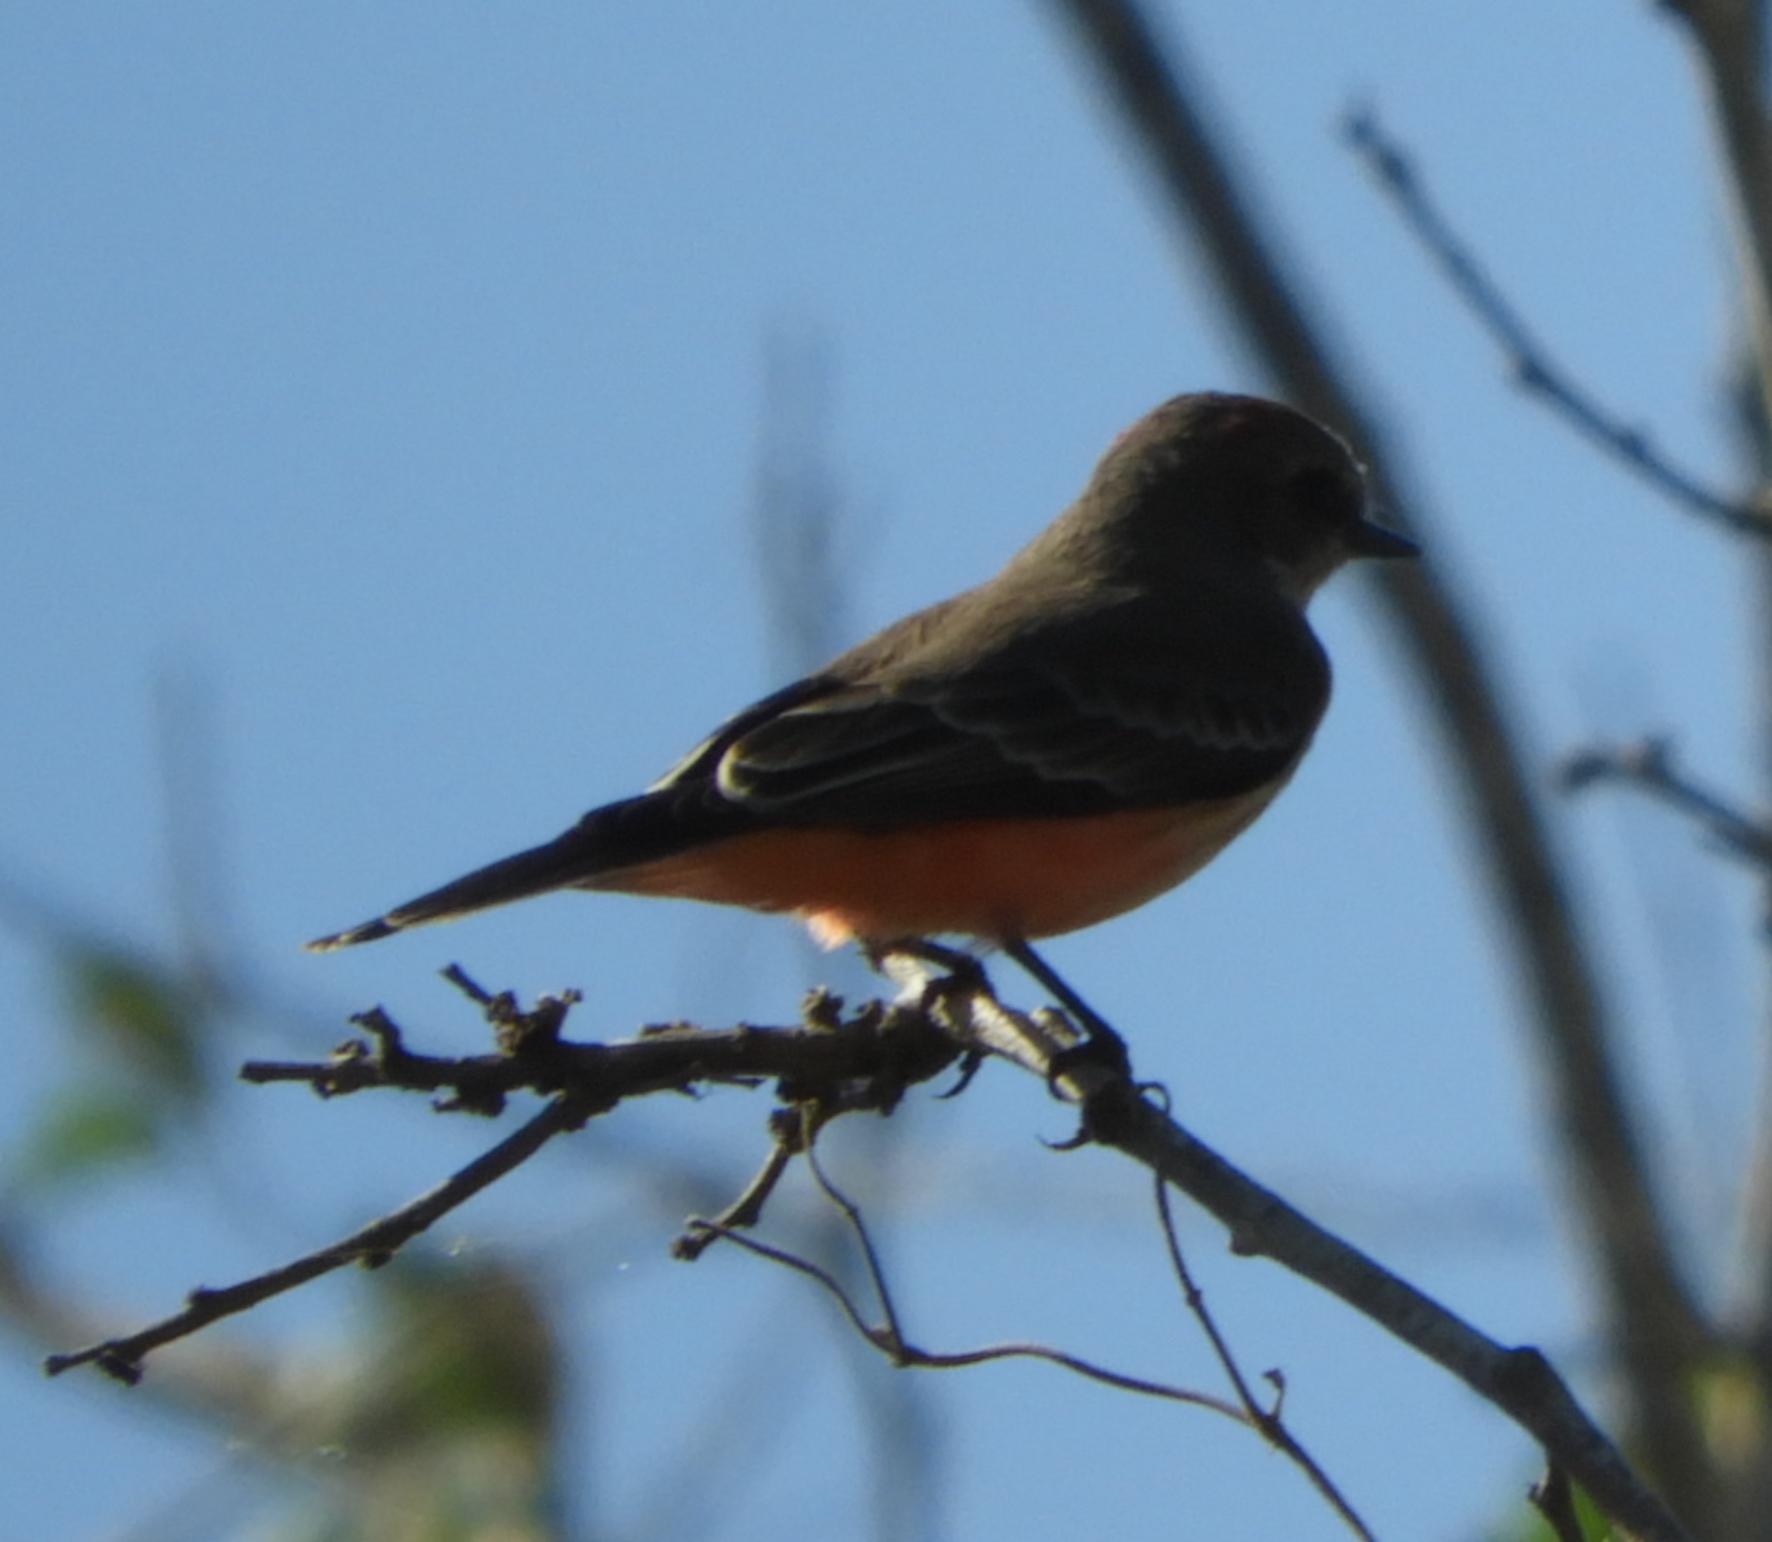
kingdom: Animalia
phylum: Chordata
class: Aves
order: Passeriformes
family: Tyrannidae
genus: Pyrocephalus
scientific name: Pyrocephalus rubinus
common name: Vermilion flycatcher
